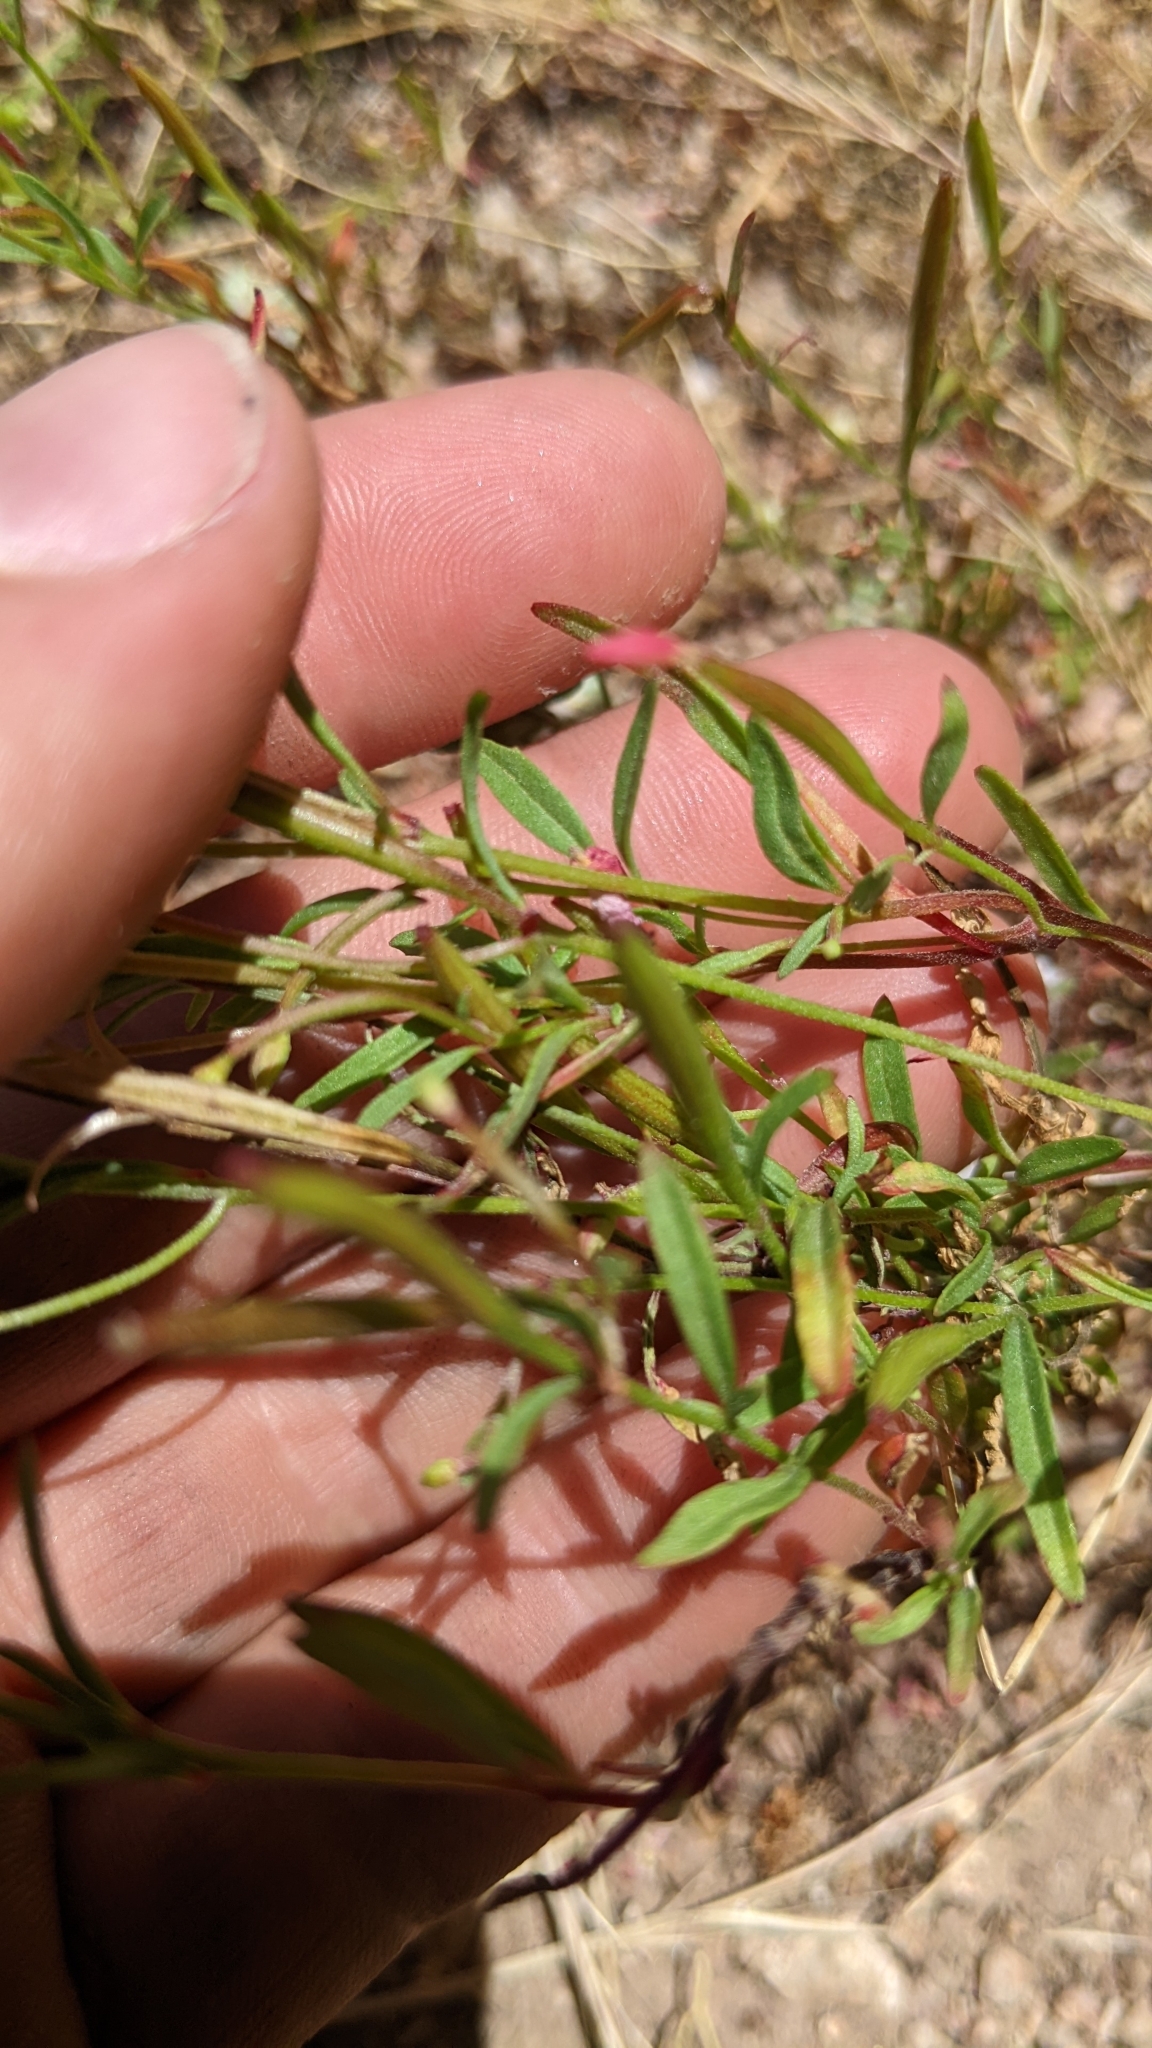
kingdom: Plantae
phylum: Tracheophyta
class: Magnoliopsida
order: Myrtales
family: Onagraceae
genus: Clarkia
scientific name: Clarkia epilobioides
